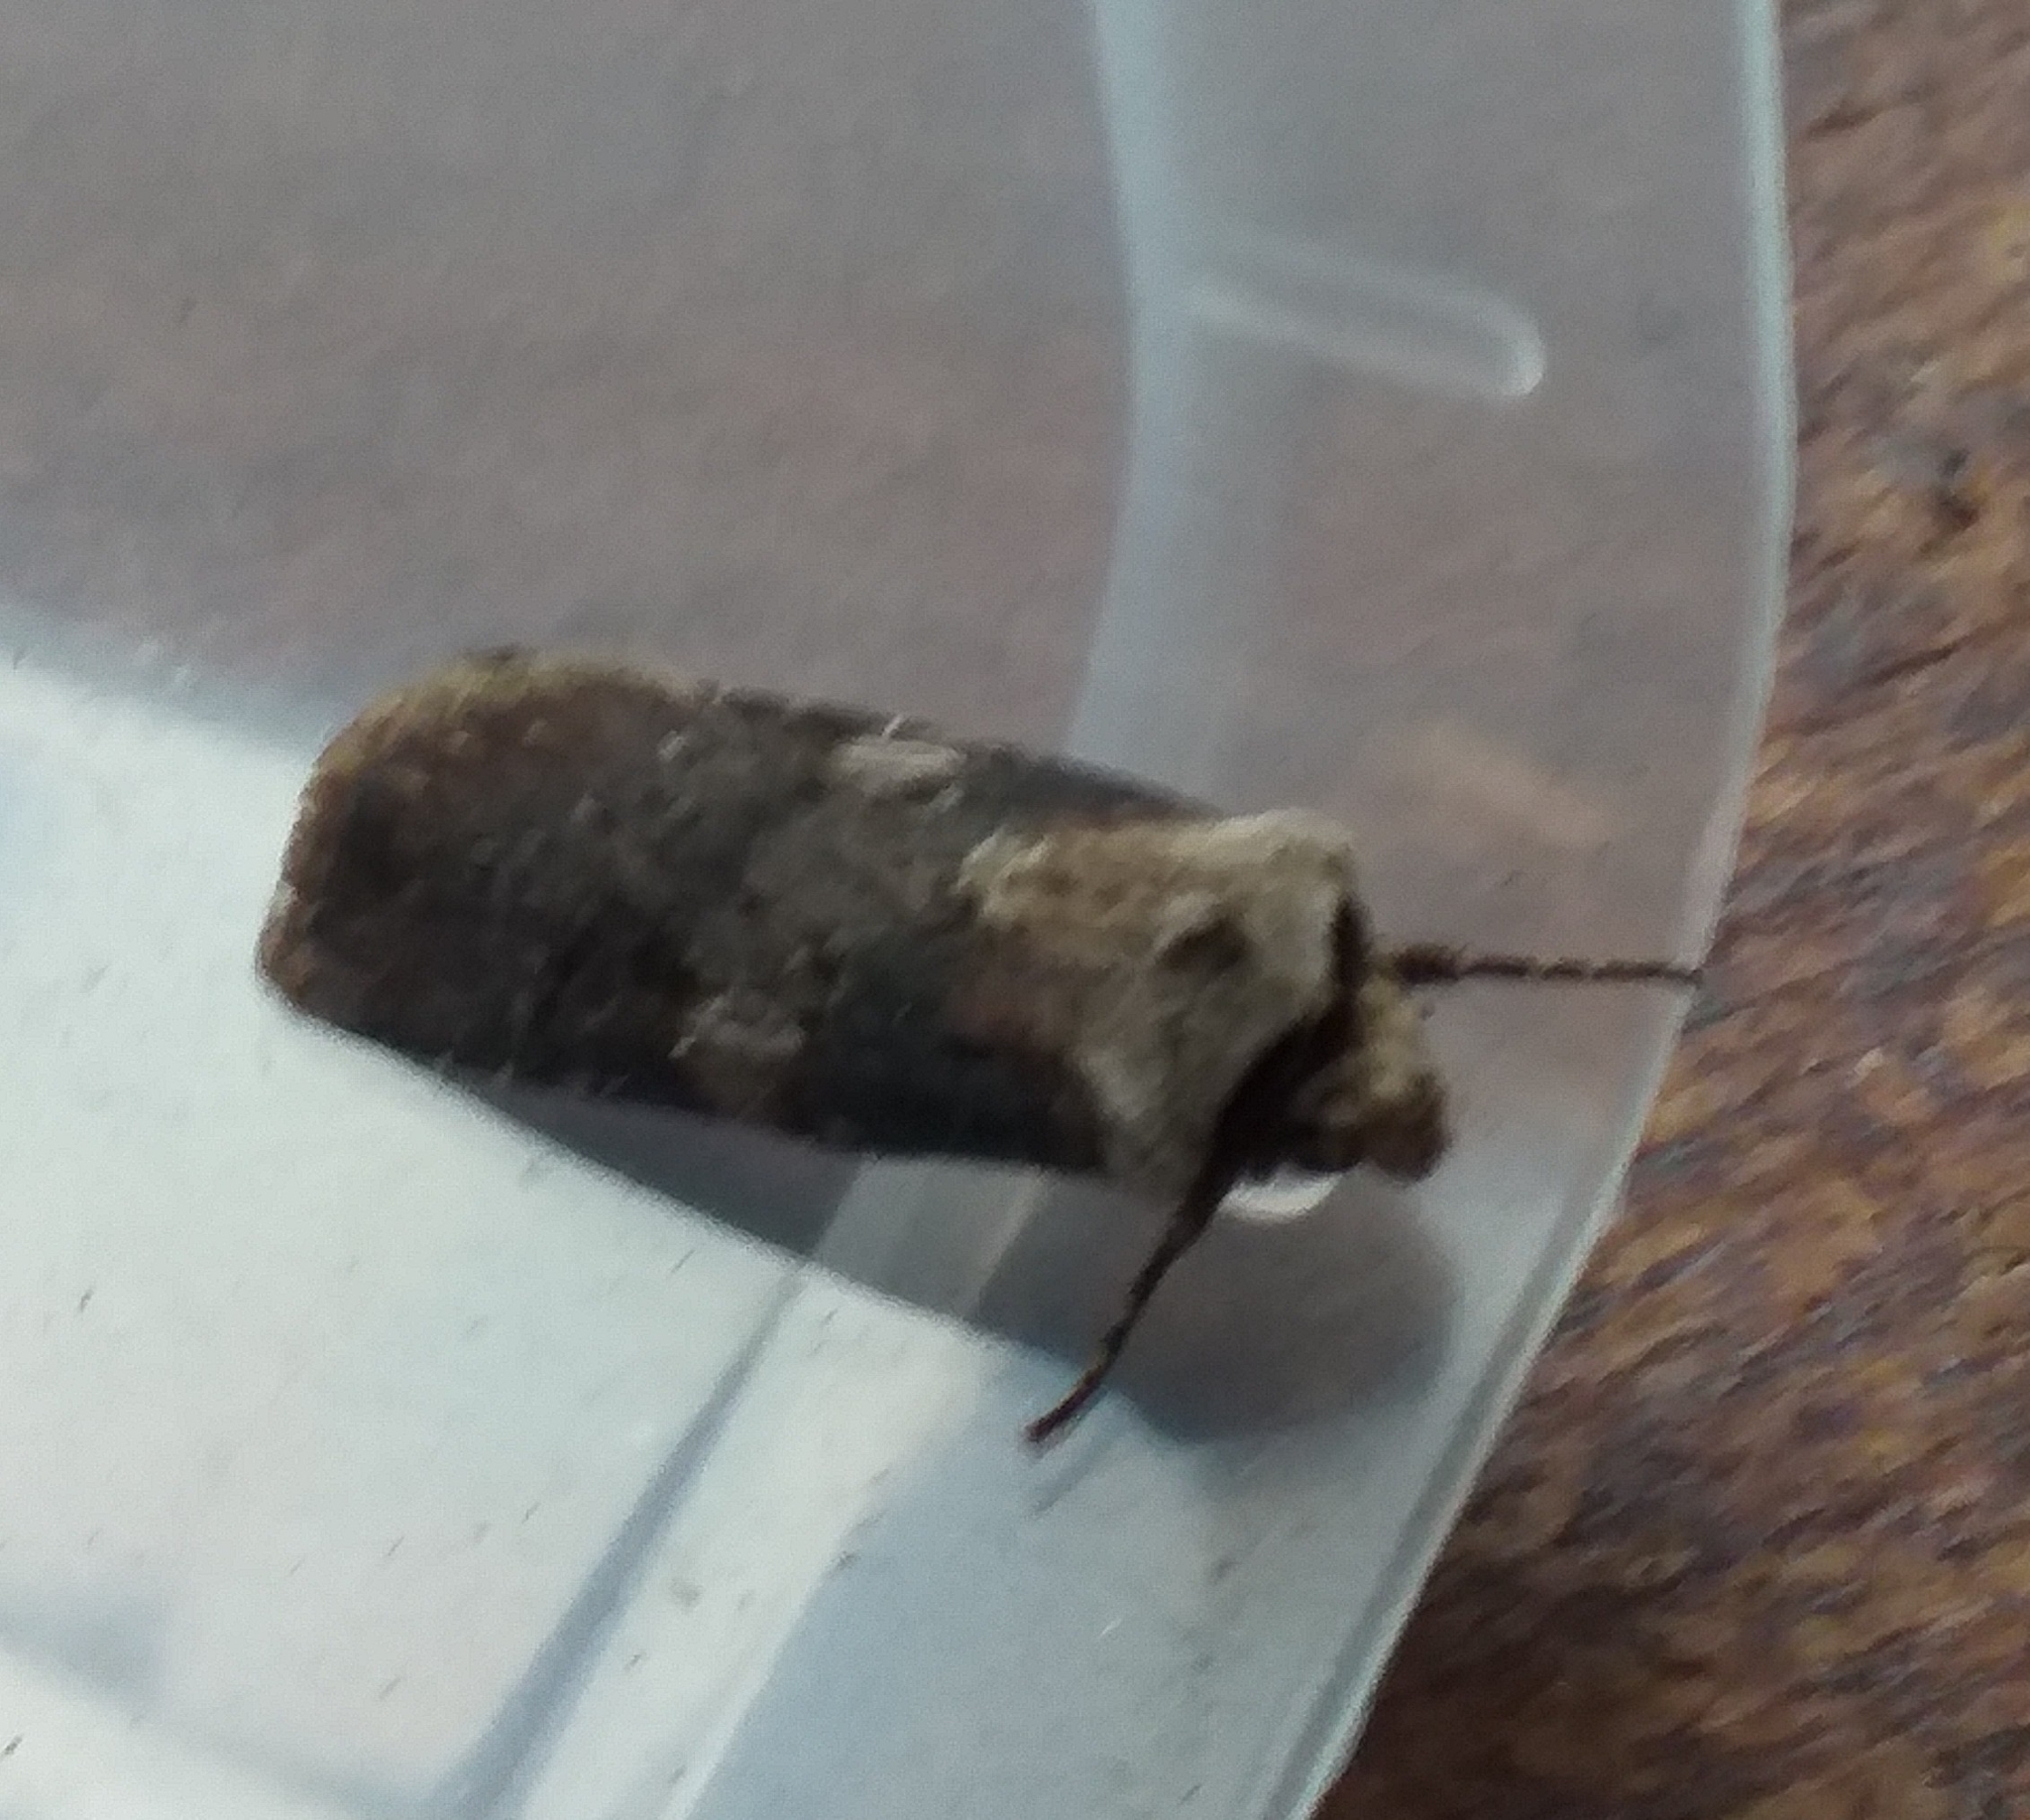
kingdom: Animalia
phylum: Arthropoda
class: Insecta
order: Lepidoptera
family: Noctuidae
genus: Agrotis
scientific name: Agrotis puta
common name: Shuttle-shaped dart
